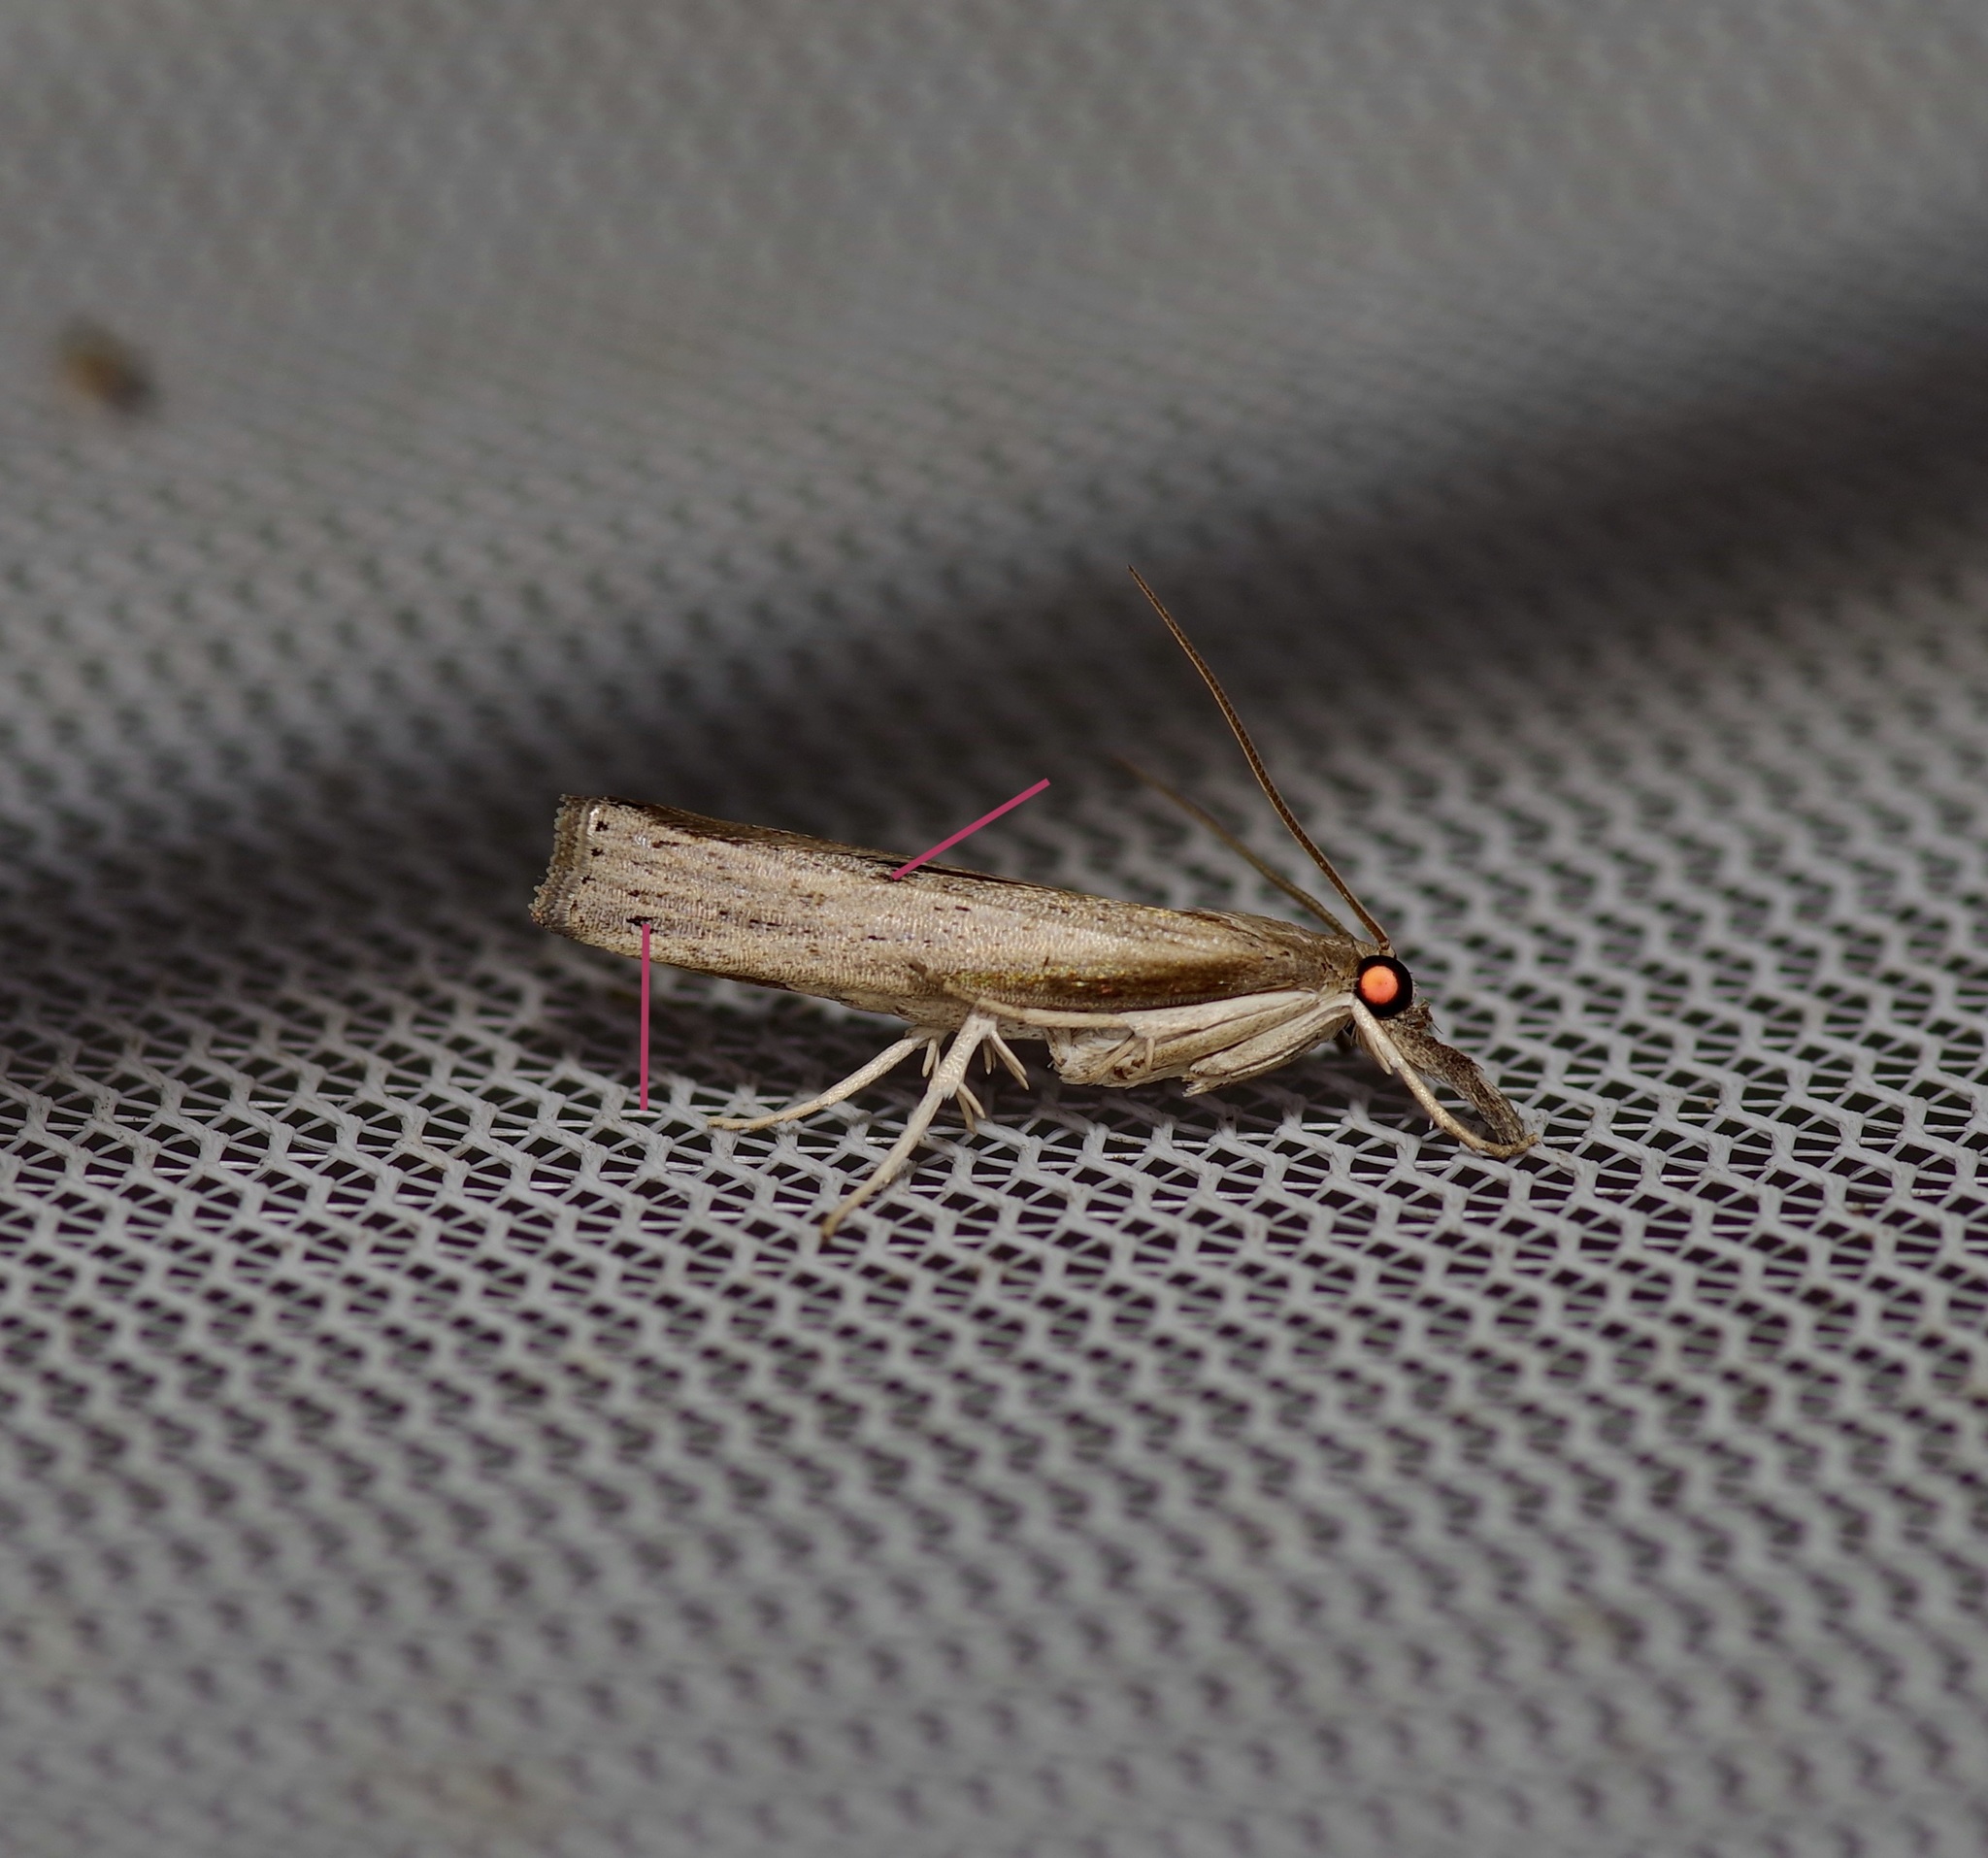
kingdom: Animalia
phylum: Arthropoda
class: Insecta
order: Lepidoptera
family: Crambidae
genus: Fissicrambus
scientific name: Fissicrambus mutabilis
